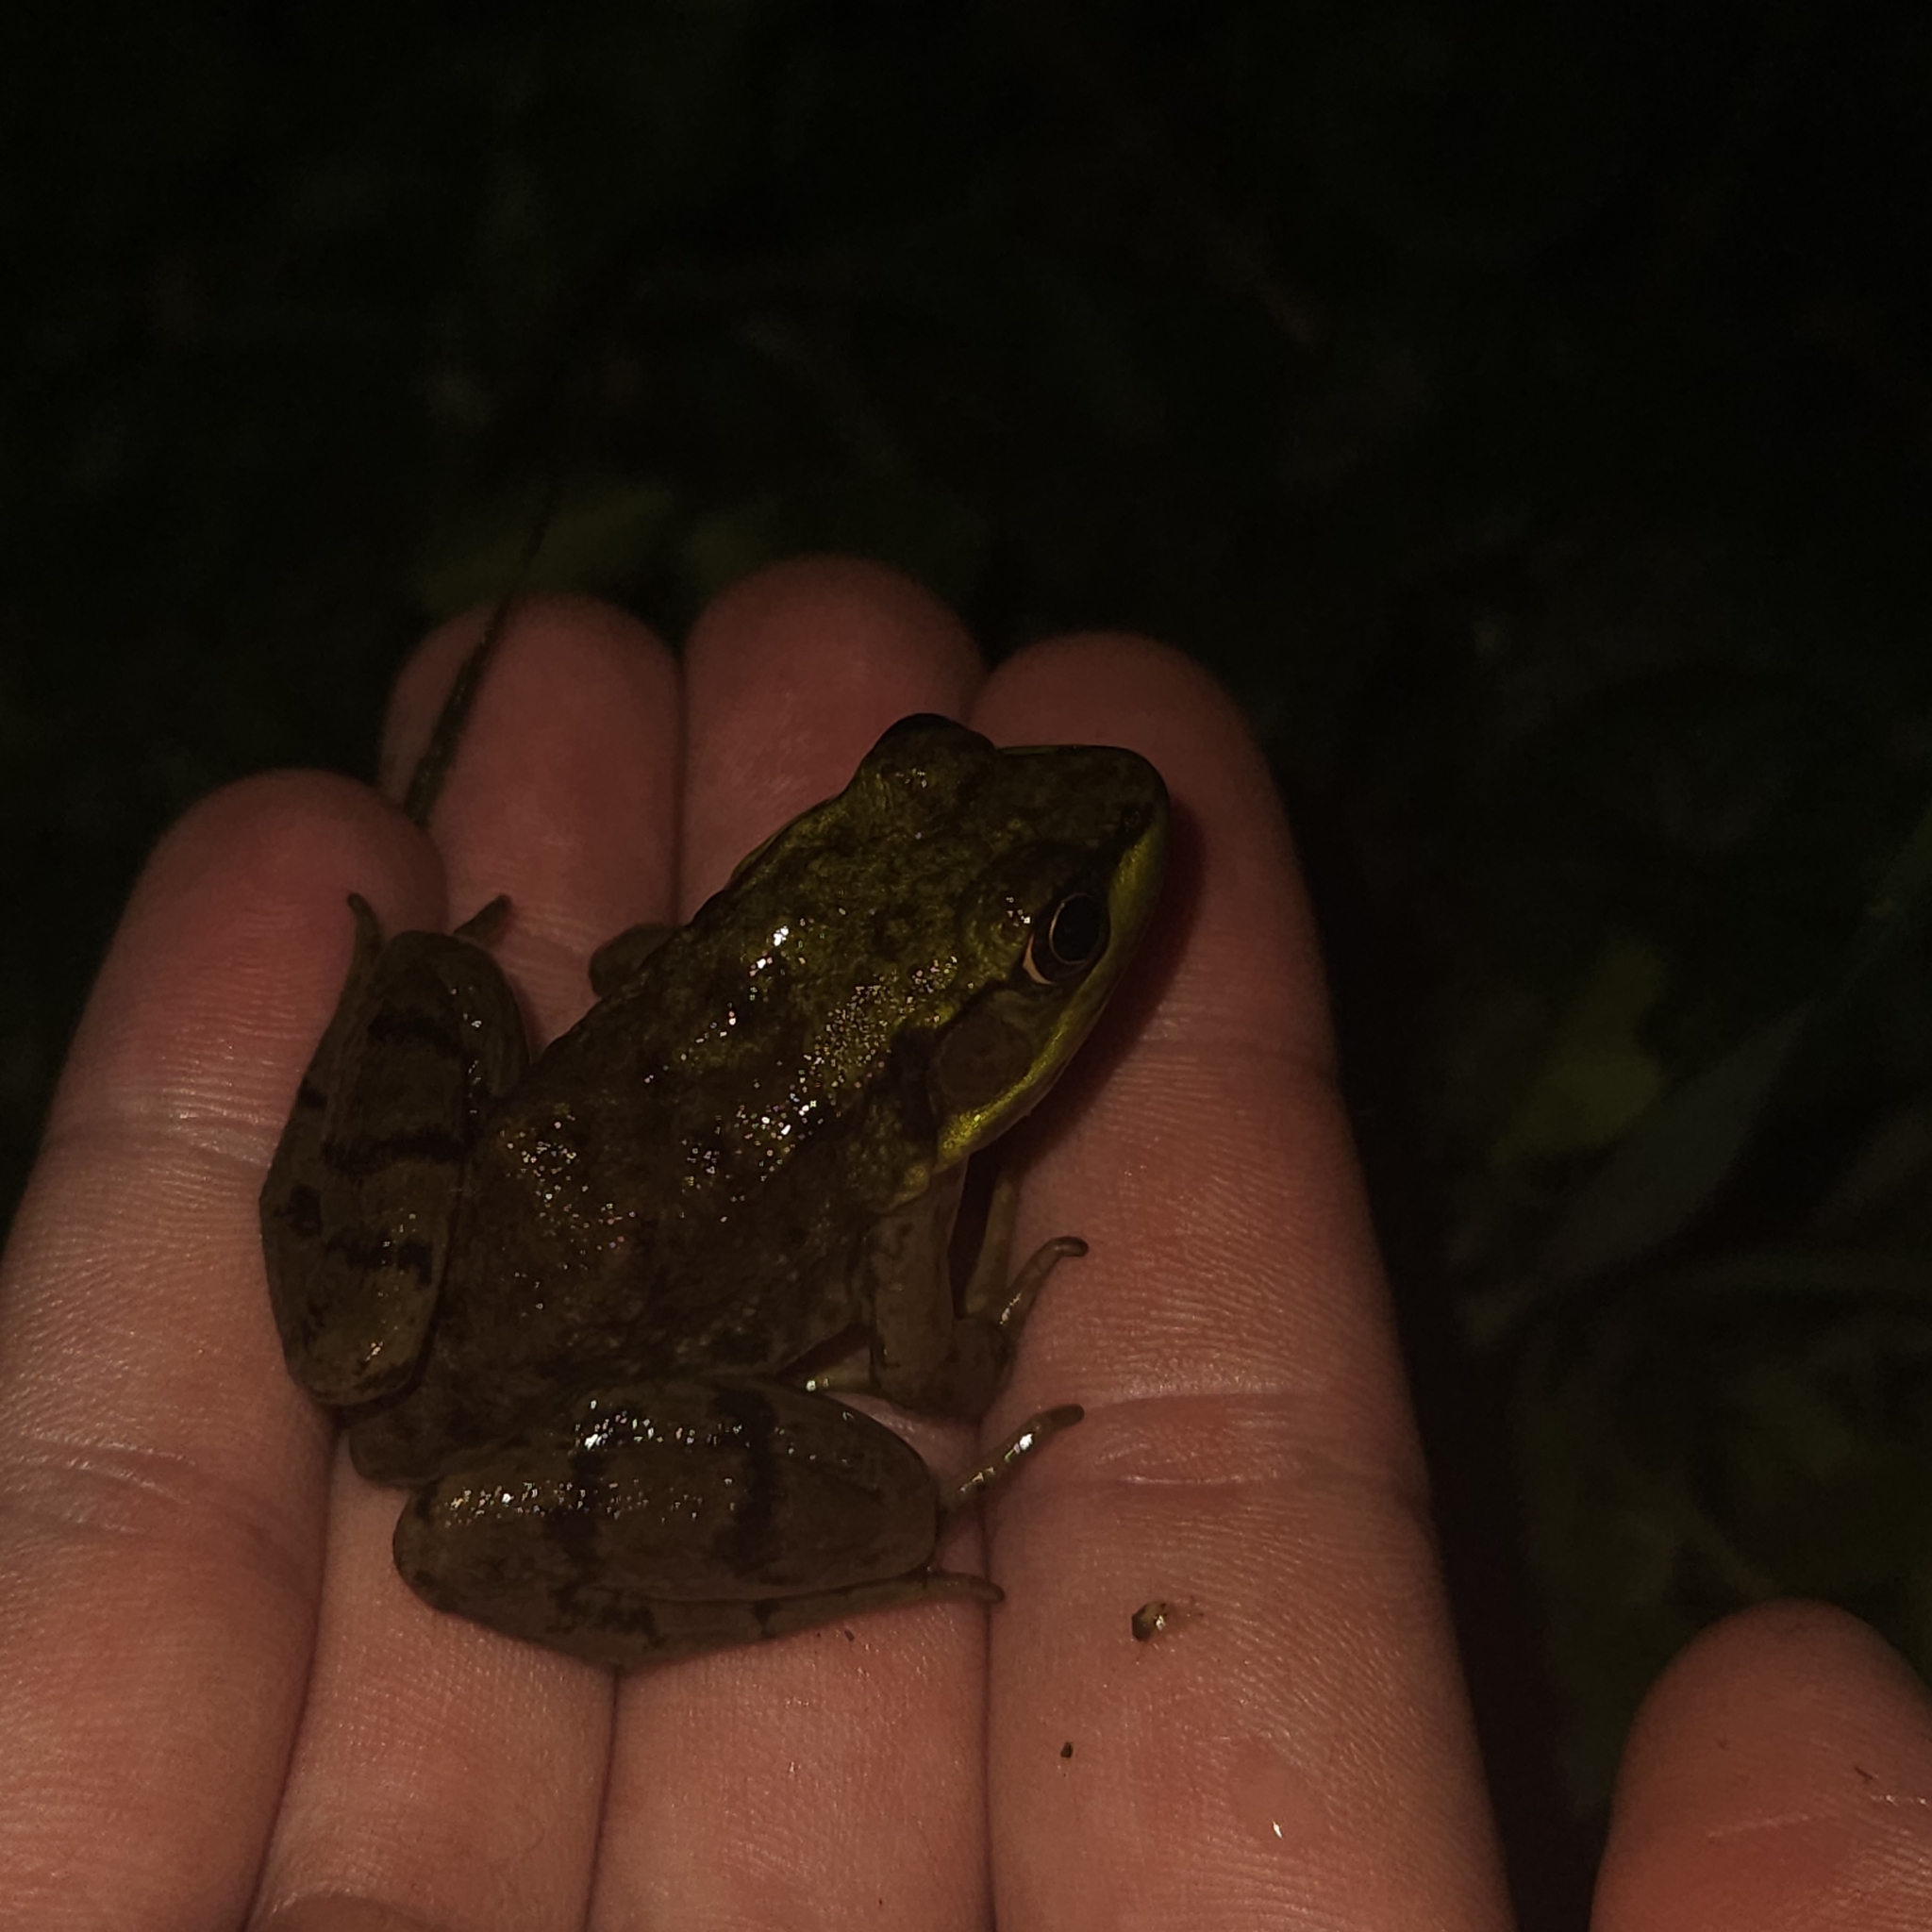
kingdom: Animalia
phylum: Chordata
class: Amphibia
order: Anura
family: Ranidae
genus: Lithobates
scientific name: Lithobates clamitans
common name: Green frog
